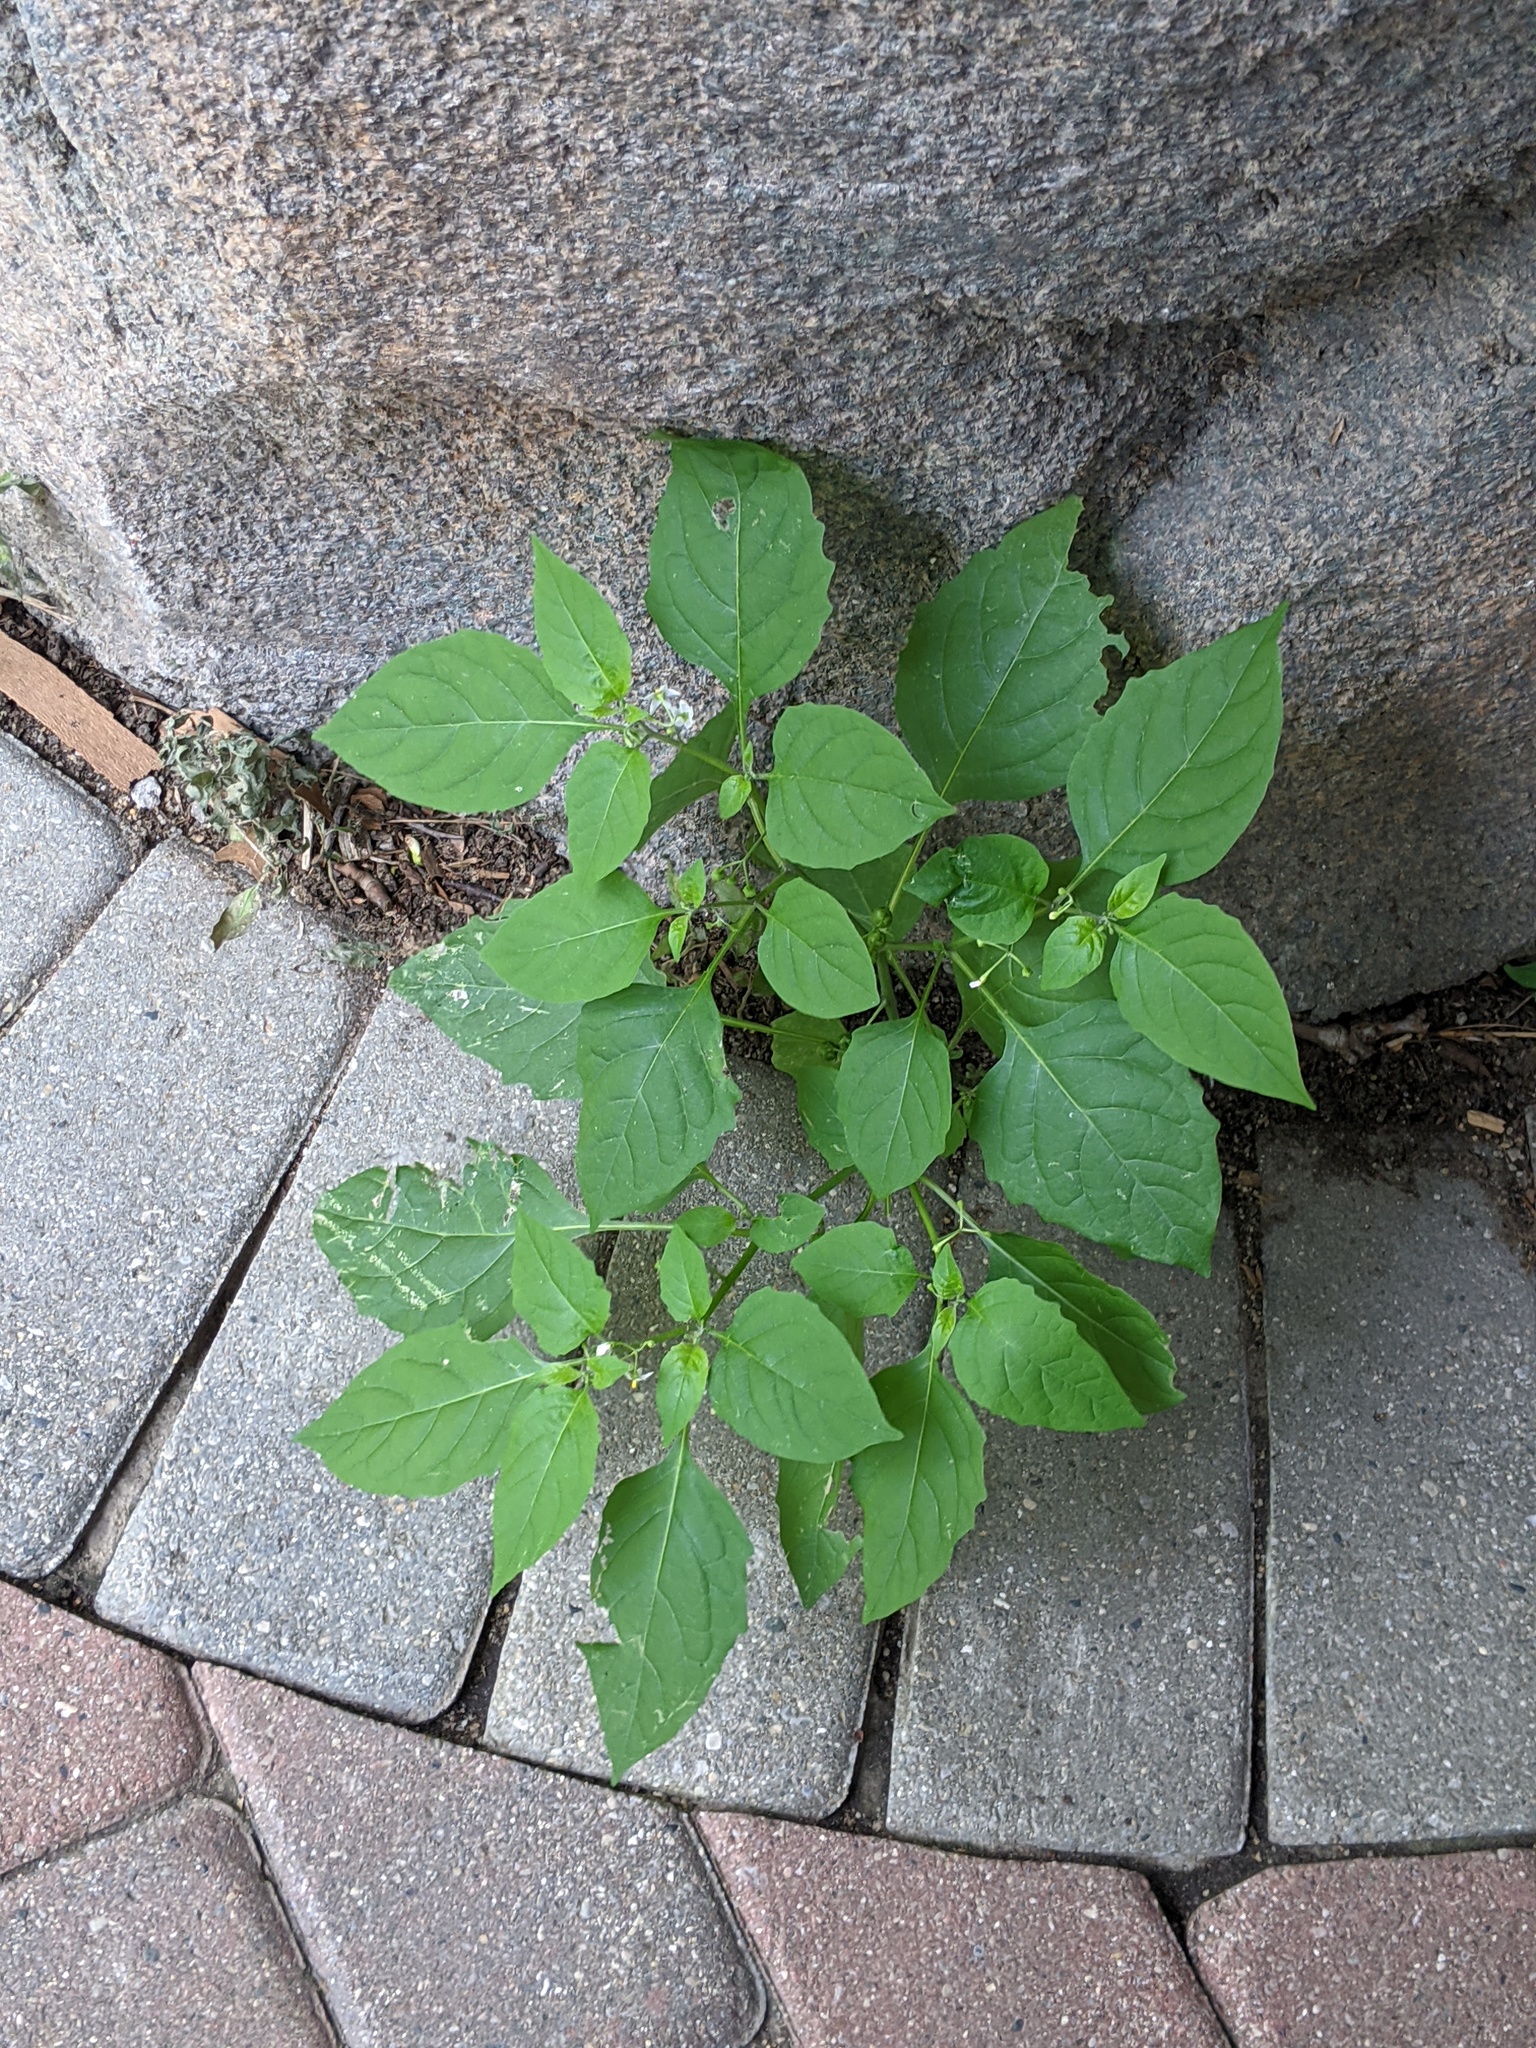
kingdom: Plantae
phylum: Tracheophyta
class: Magnoliopsida
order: Solanales
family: Solanaceae
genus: Solanum
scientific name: Solanum emulans
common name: Eastern black nightshade
